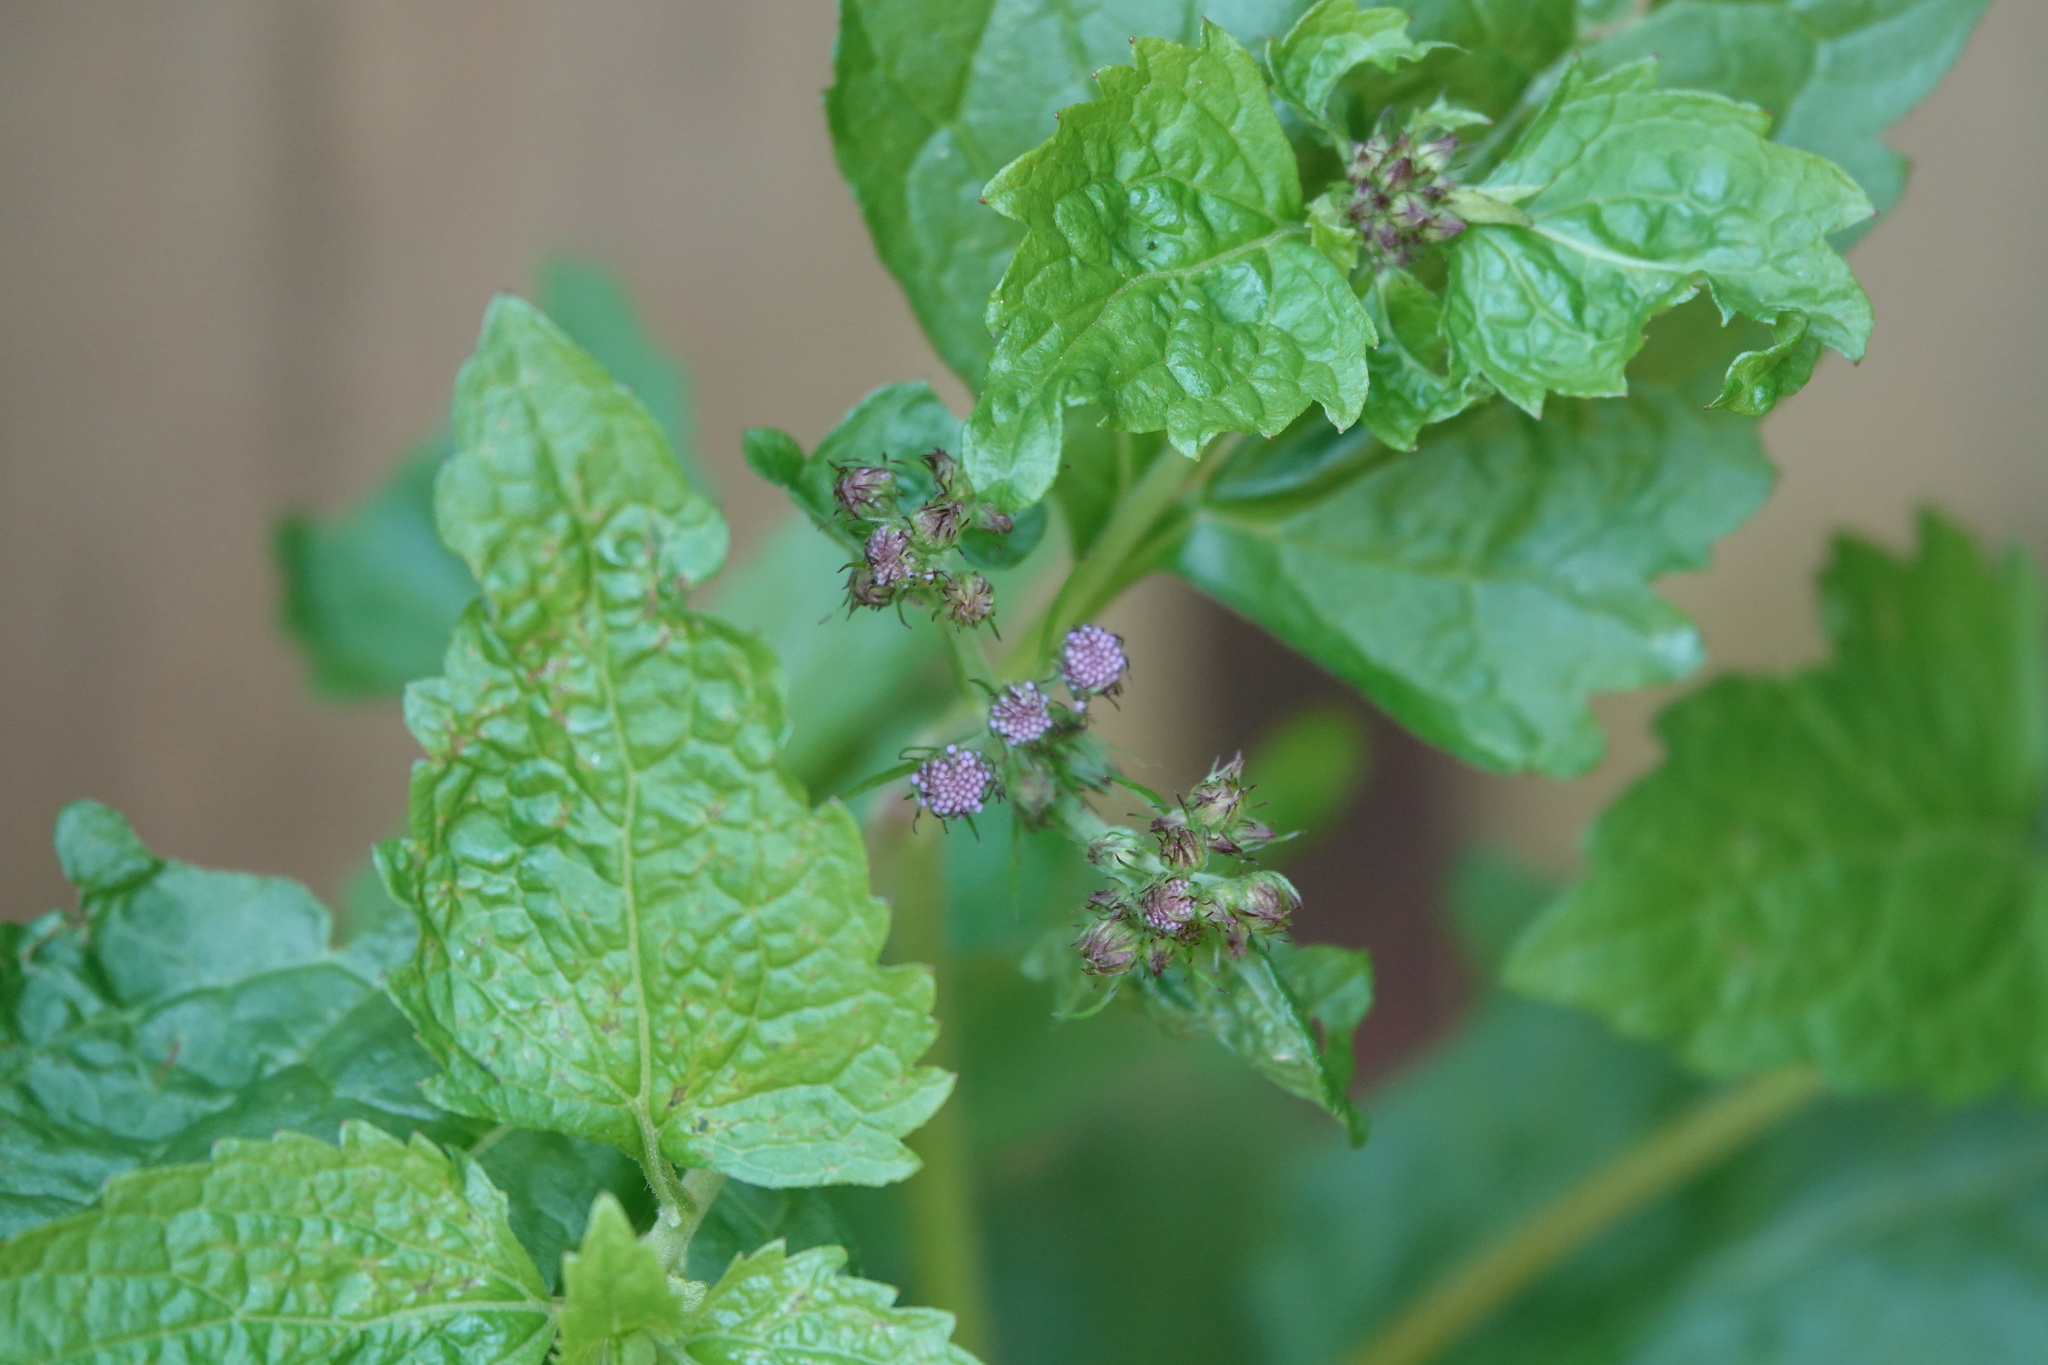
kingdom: Plantae
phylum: Tracheophyta
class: Magnoliopsida
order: Asterales
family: Asteraceae
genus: Conoclinium
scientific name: Conoclinium coelestinum
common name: Blue mistflower
